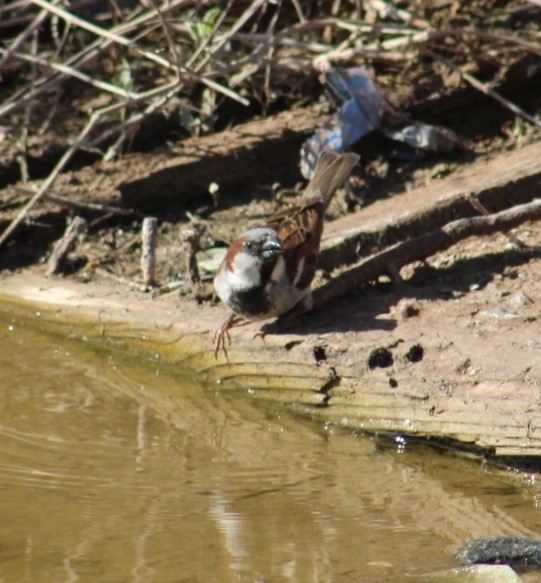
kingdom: Animalia
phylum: Chordata
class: Aves
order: Passeriformes
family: Passeridae
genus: Passer
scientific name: Passer domesticus
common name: House sparrow
